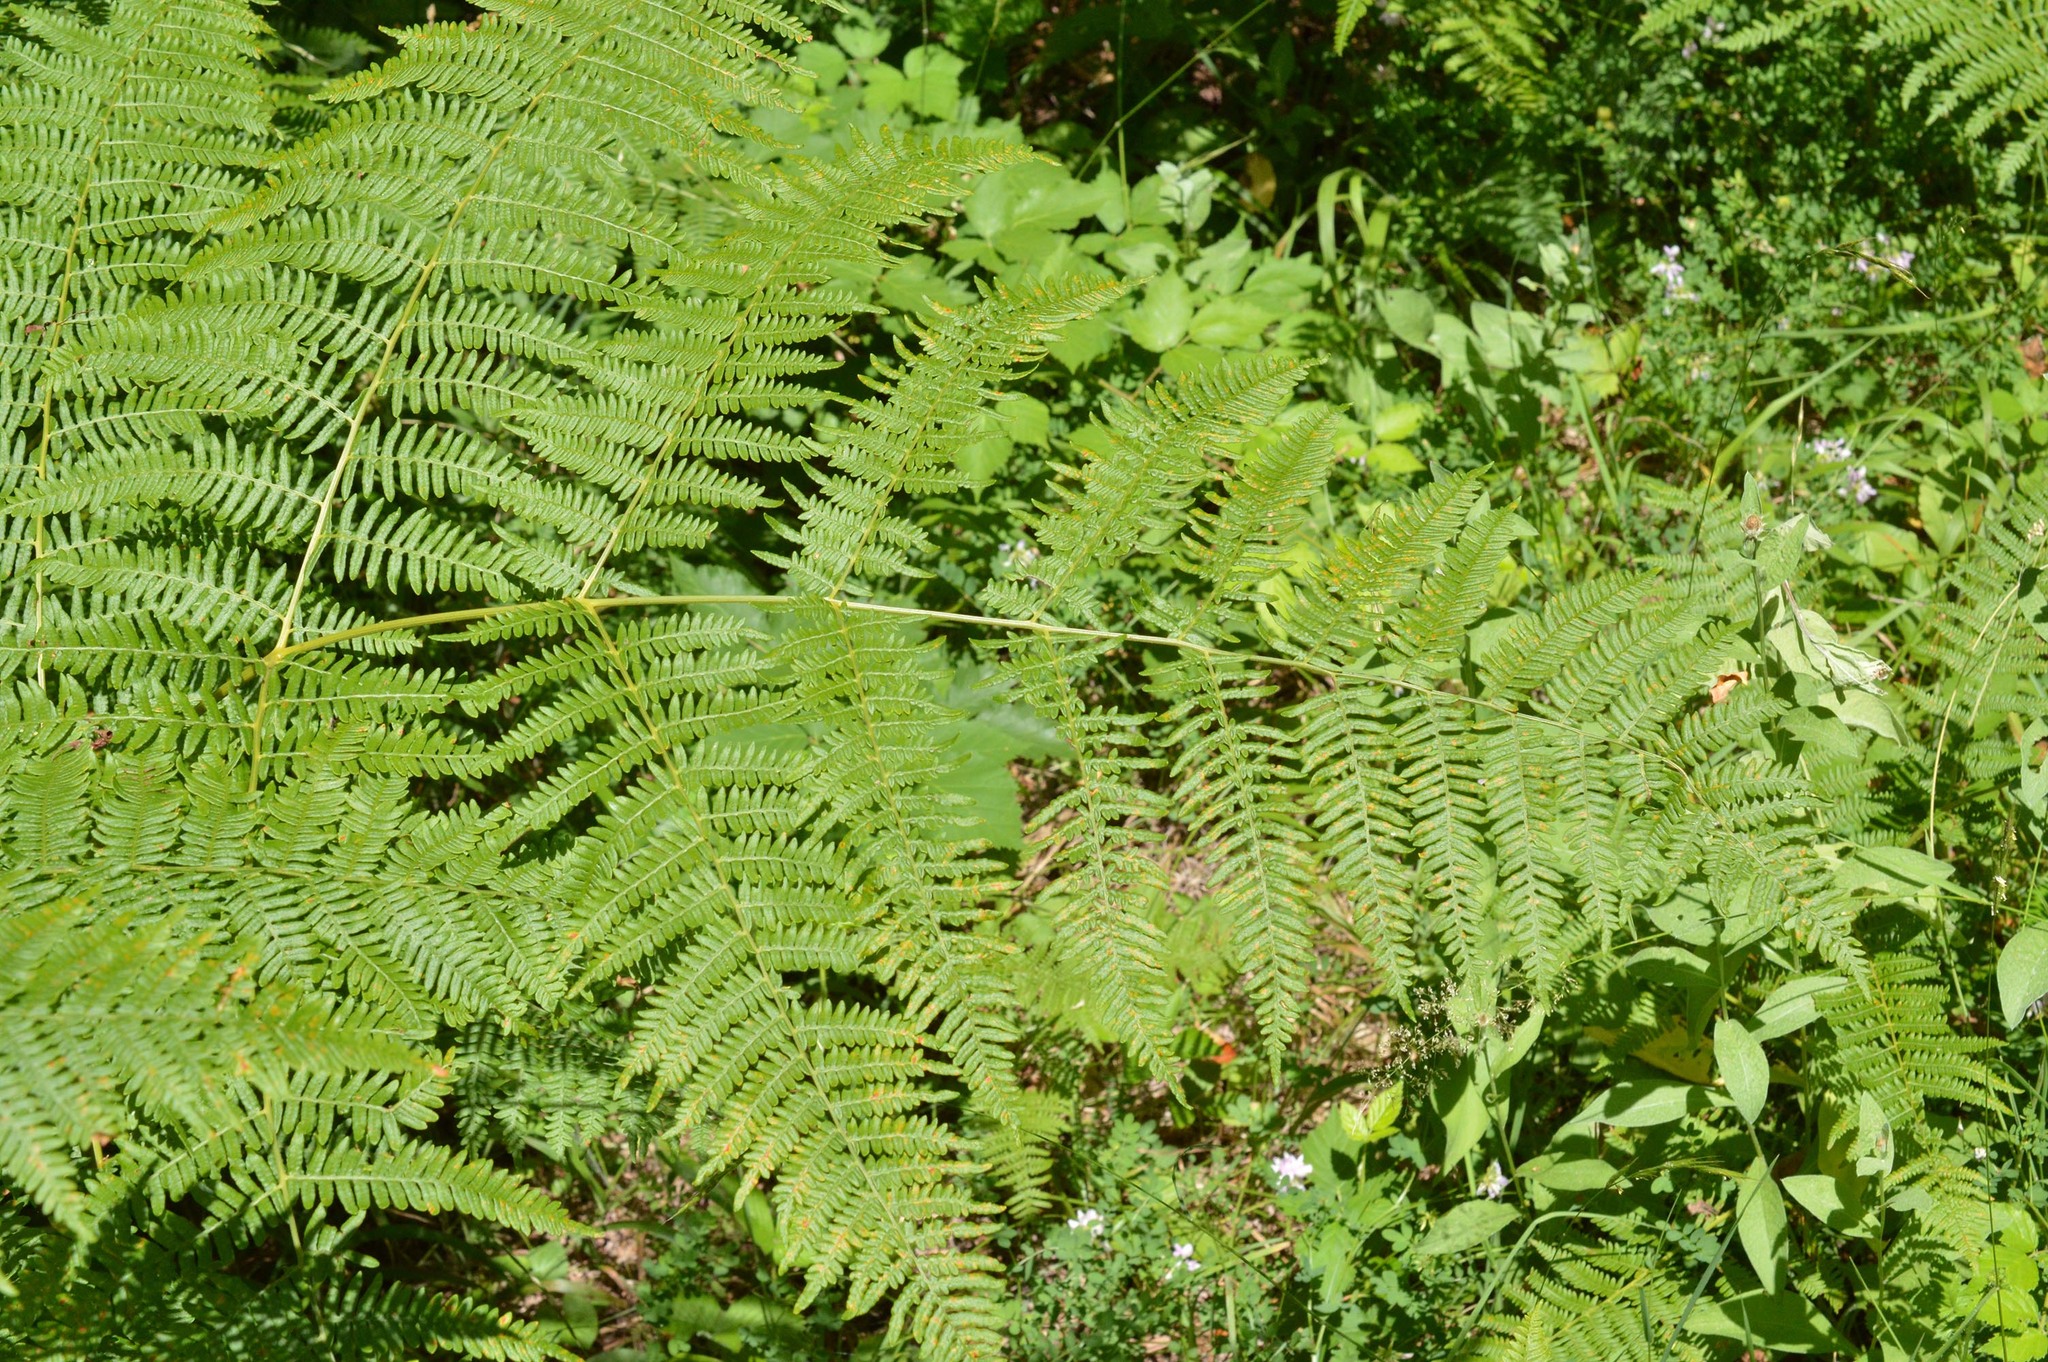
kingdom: Plantae
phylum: Tracheophyta
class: Polypodiopsida
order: Polypodiales
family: Dennstaedtiaceae
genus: Pteridium
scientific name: Pteridium aquilinum
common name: Bracken
